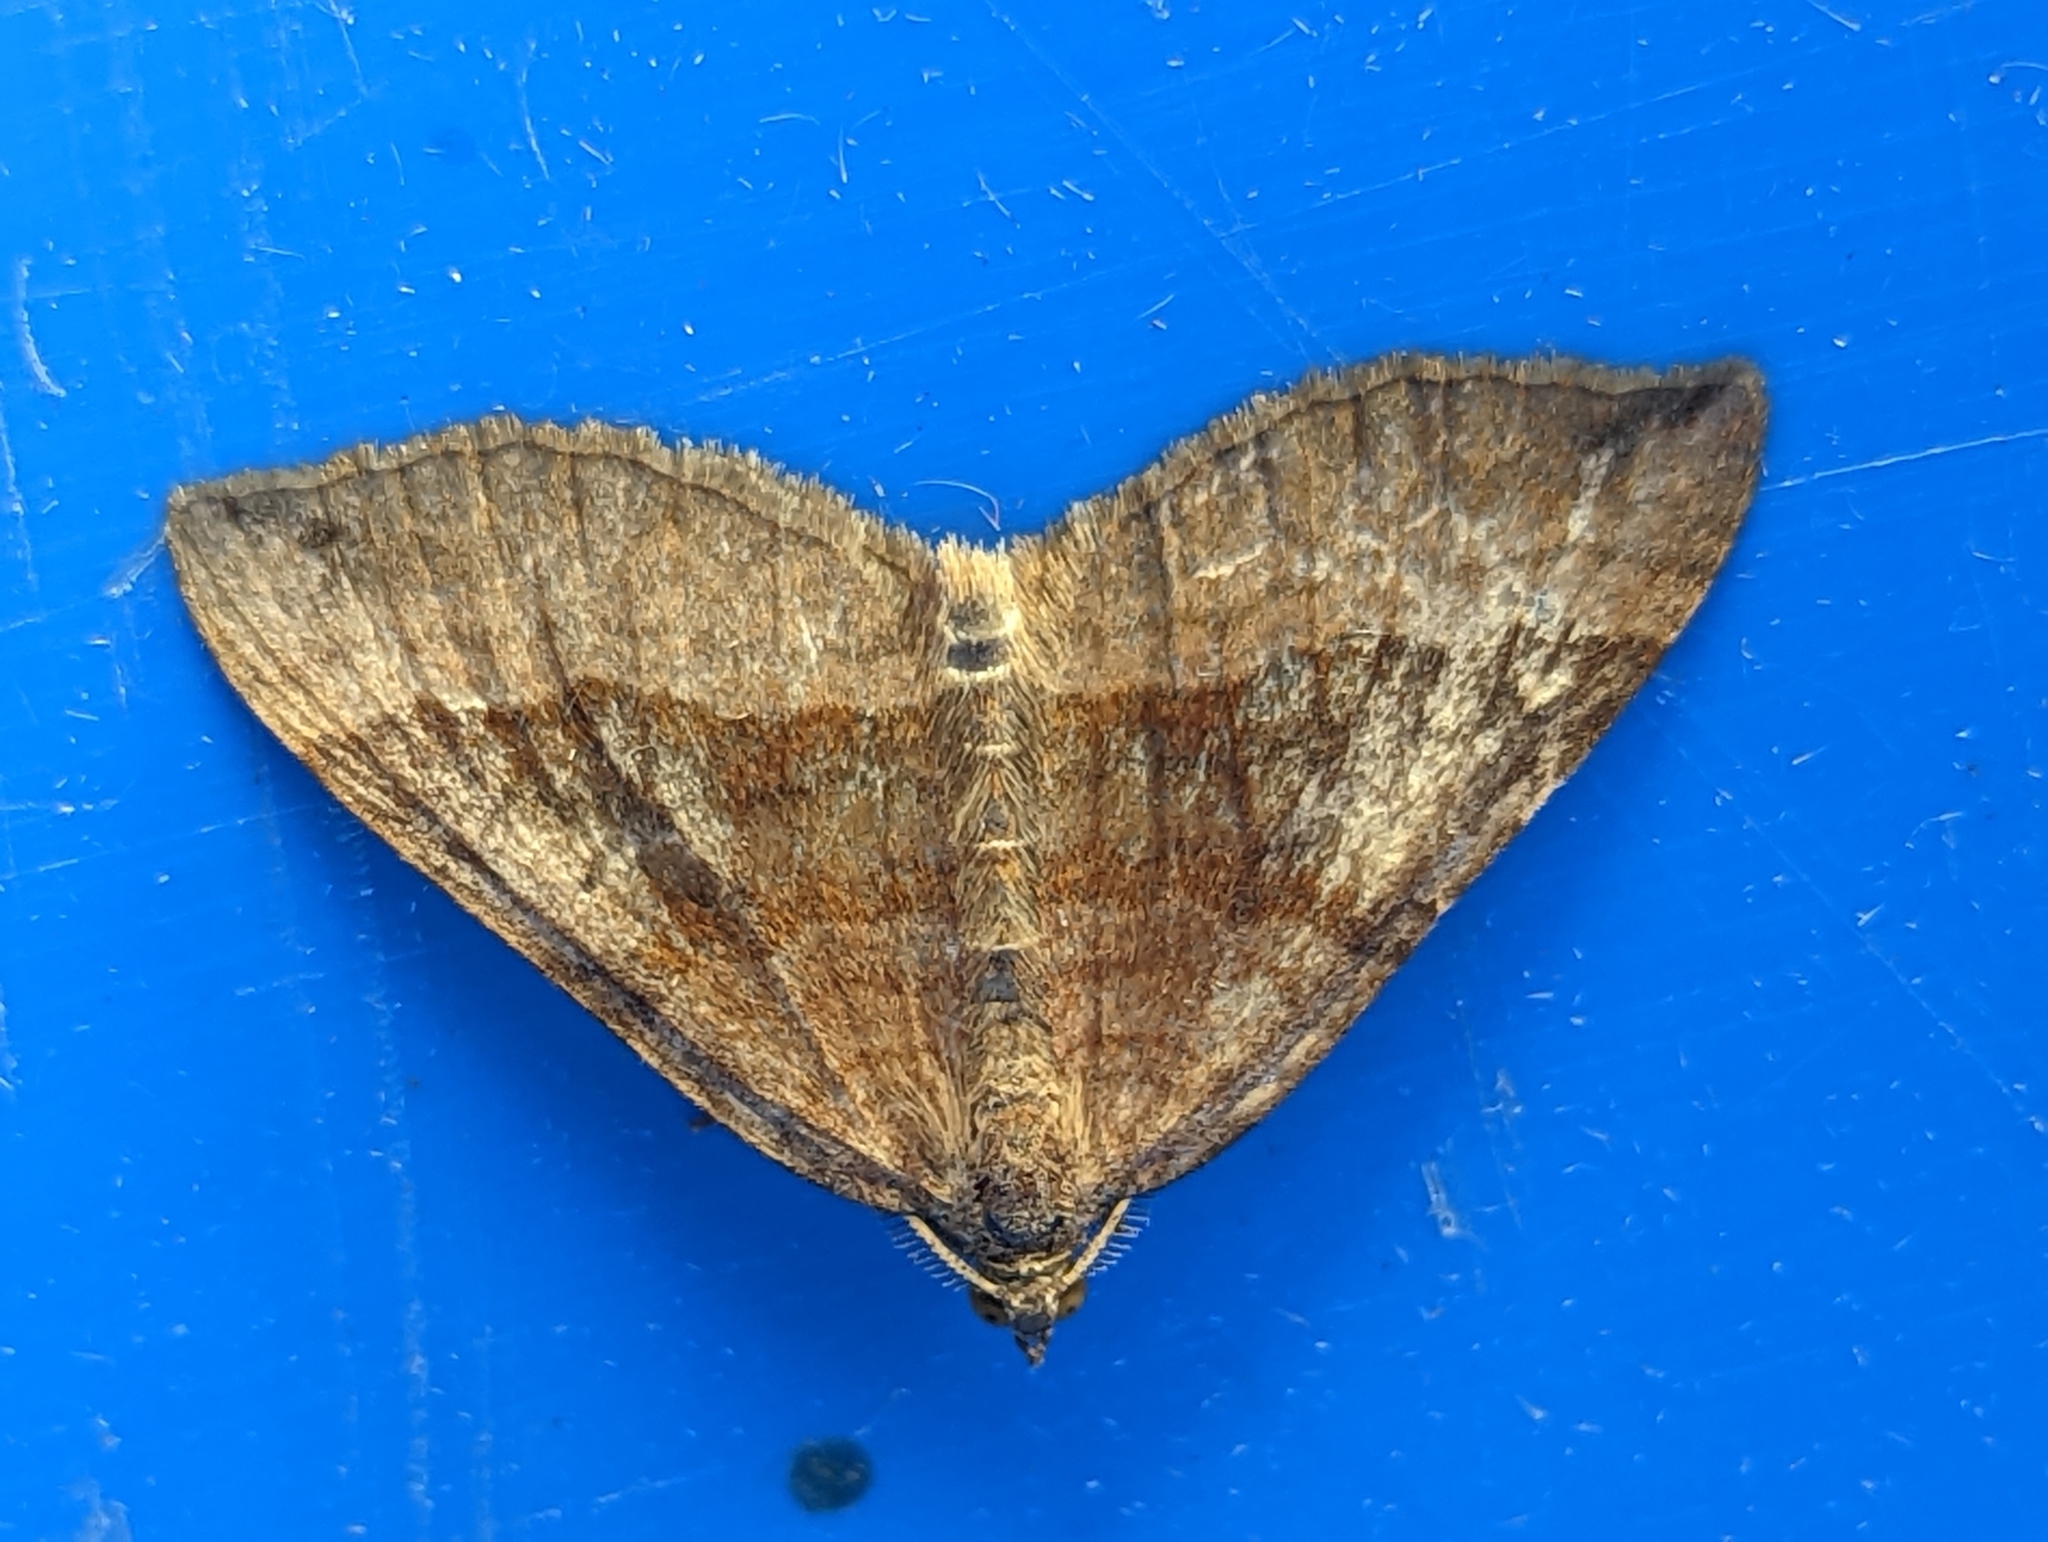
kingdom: Animalia
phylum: Arthropoda
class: Insecta
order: Lepidoptera
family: Geometridae
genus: Scotopteryx
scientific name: Scotopteryx chenopodiata
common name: Shaded broad-bar
